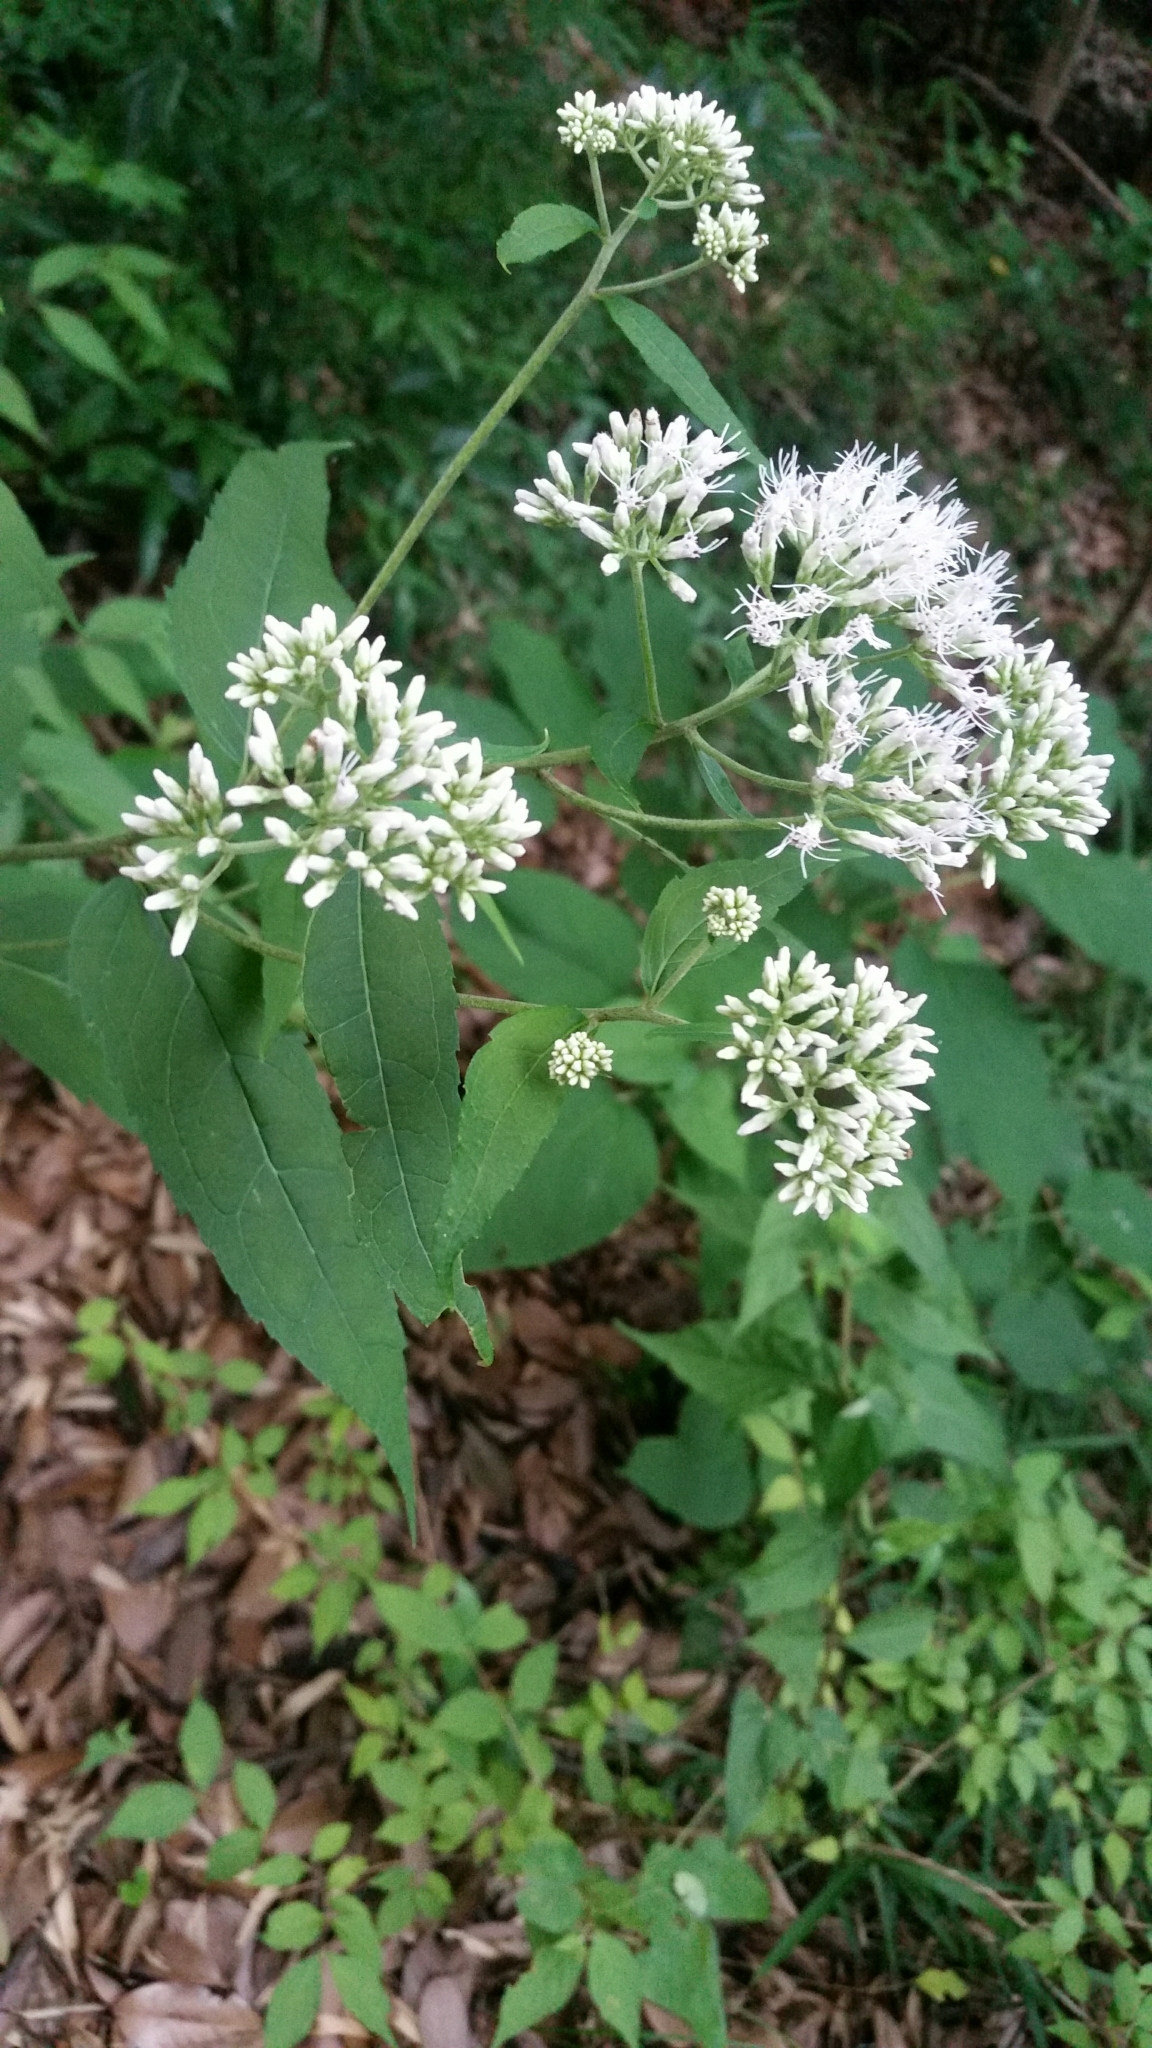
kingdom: Plantae
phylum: Tracheophyta
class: Magnoliopsida
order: Asterales
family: Asteraceae
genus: Eupatorium
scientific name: Eupatorium chinense
